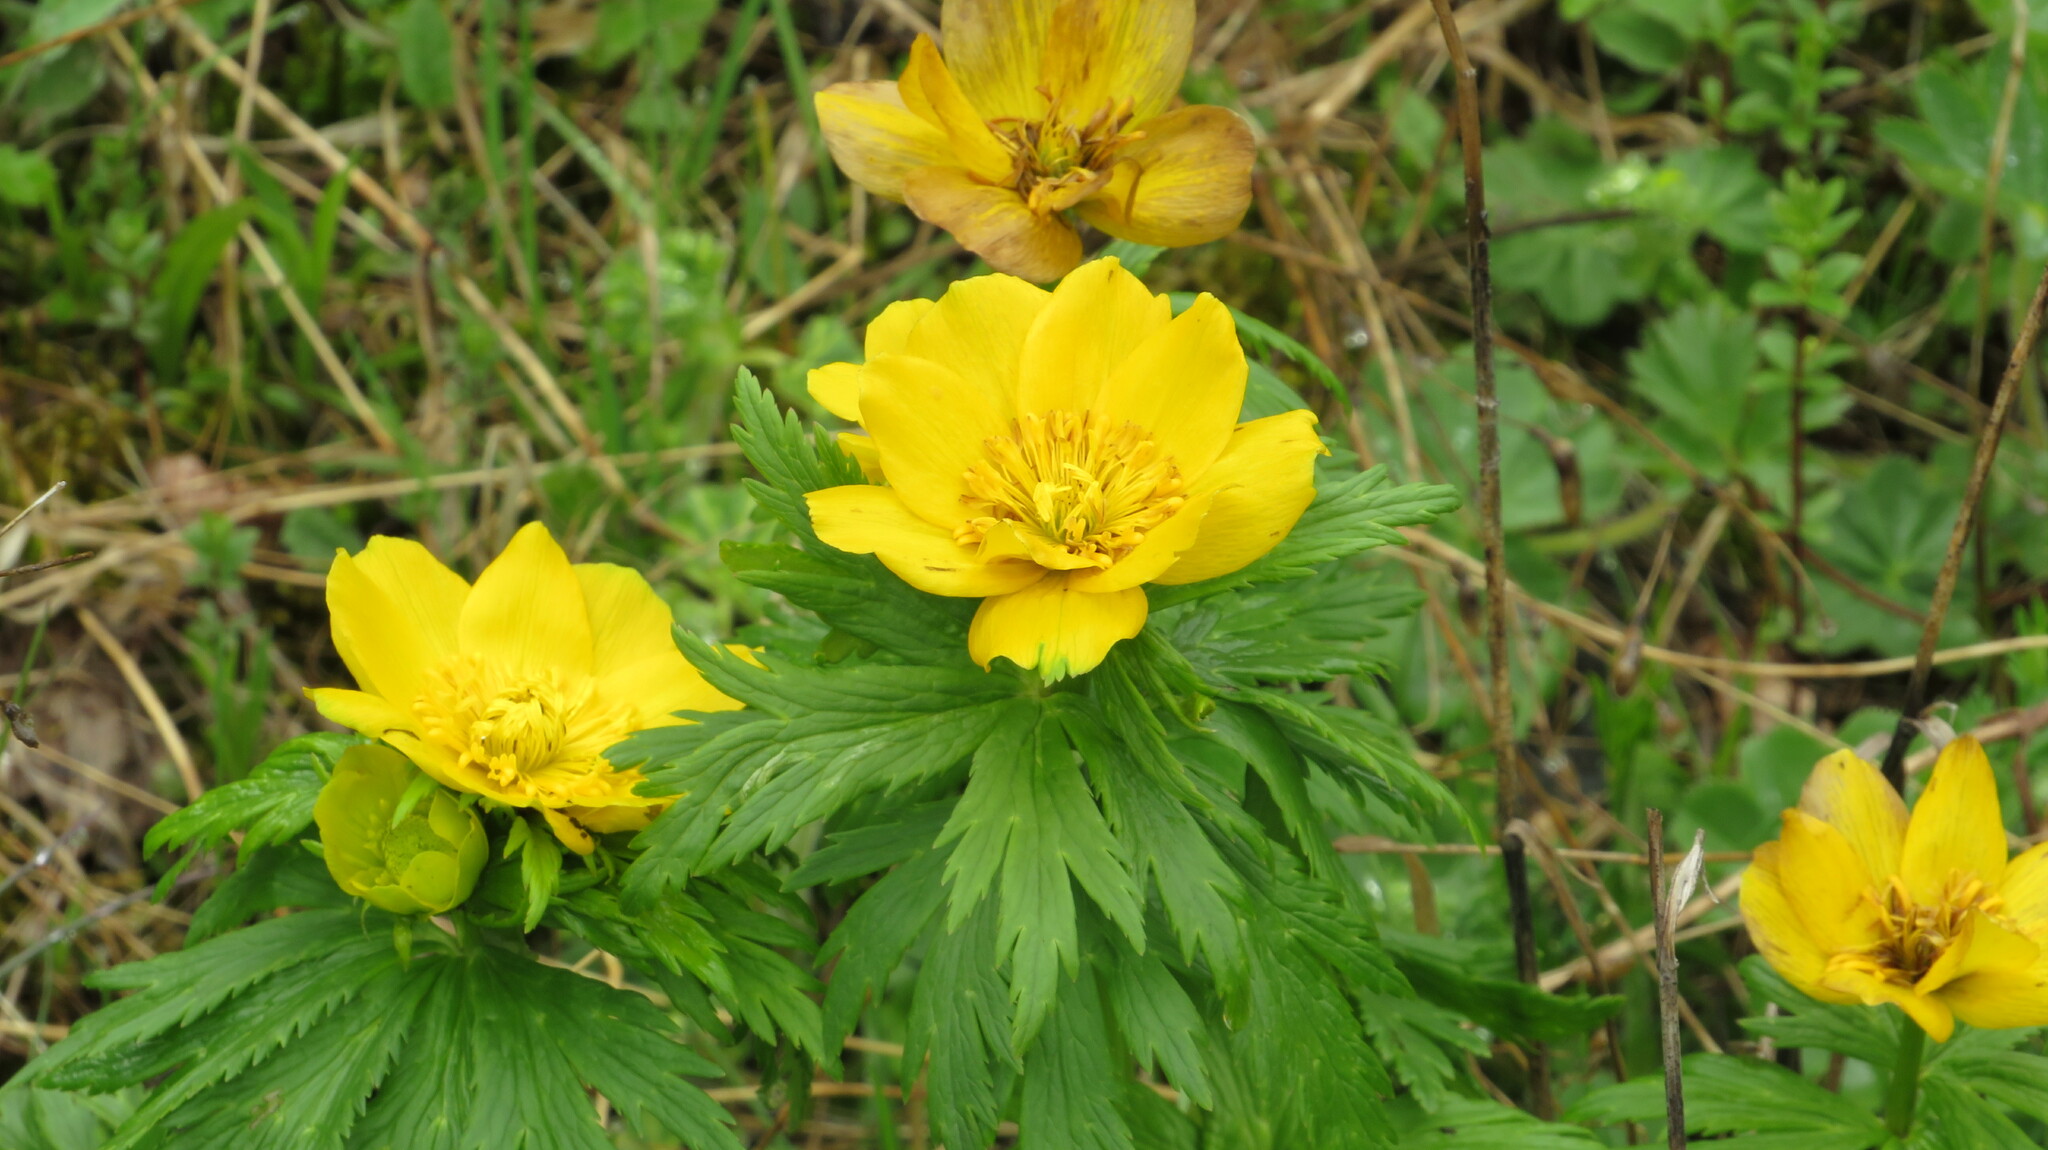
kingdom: Plantae
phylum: Tracheophyta
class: Magnoliopsida
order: Ranunculales
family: Ranunculaceae
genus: Trollius
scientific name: Trollius ranunculinus
